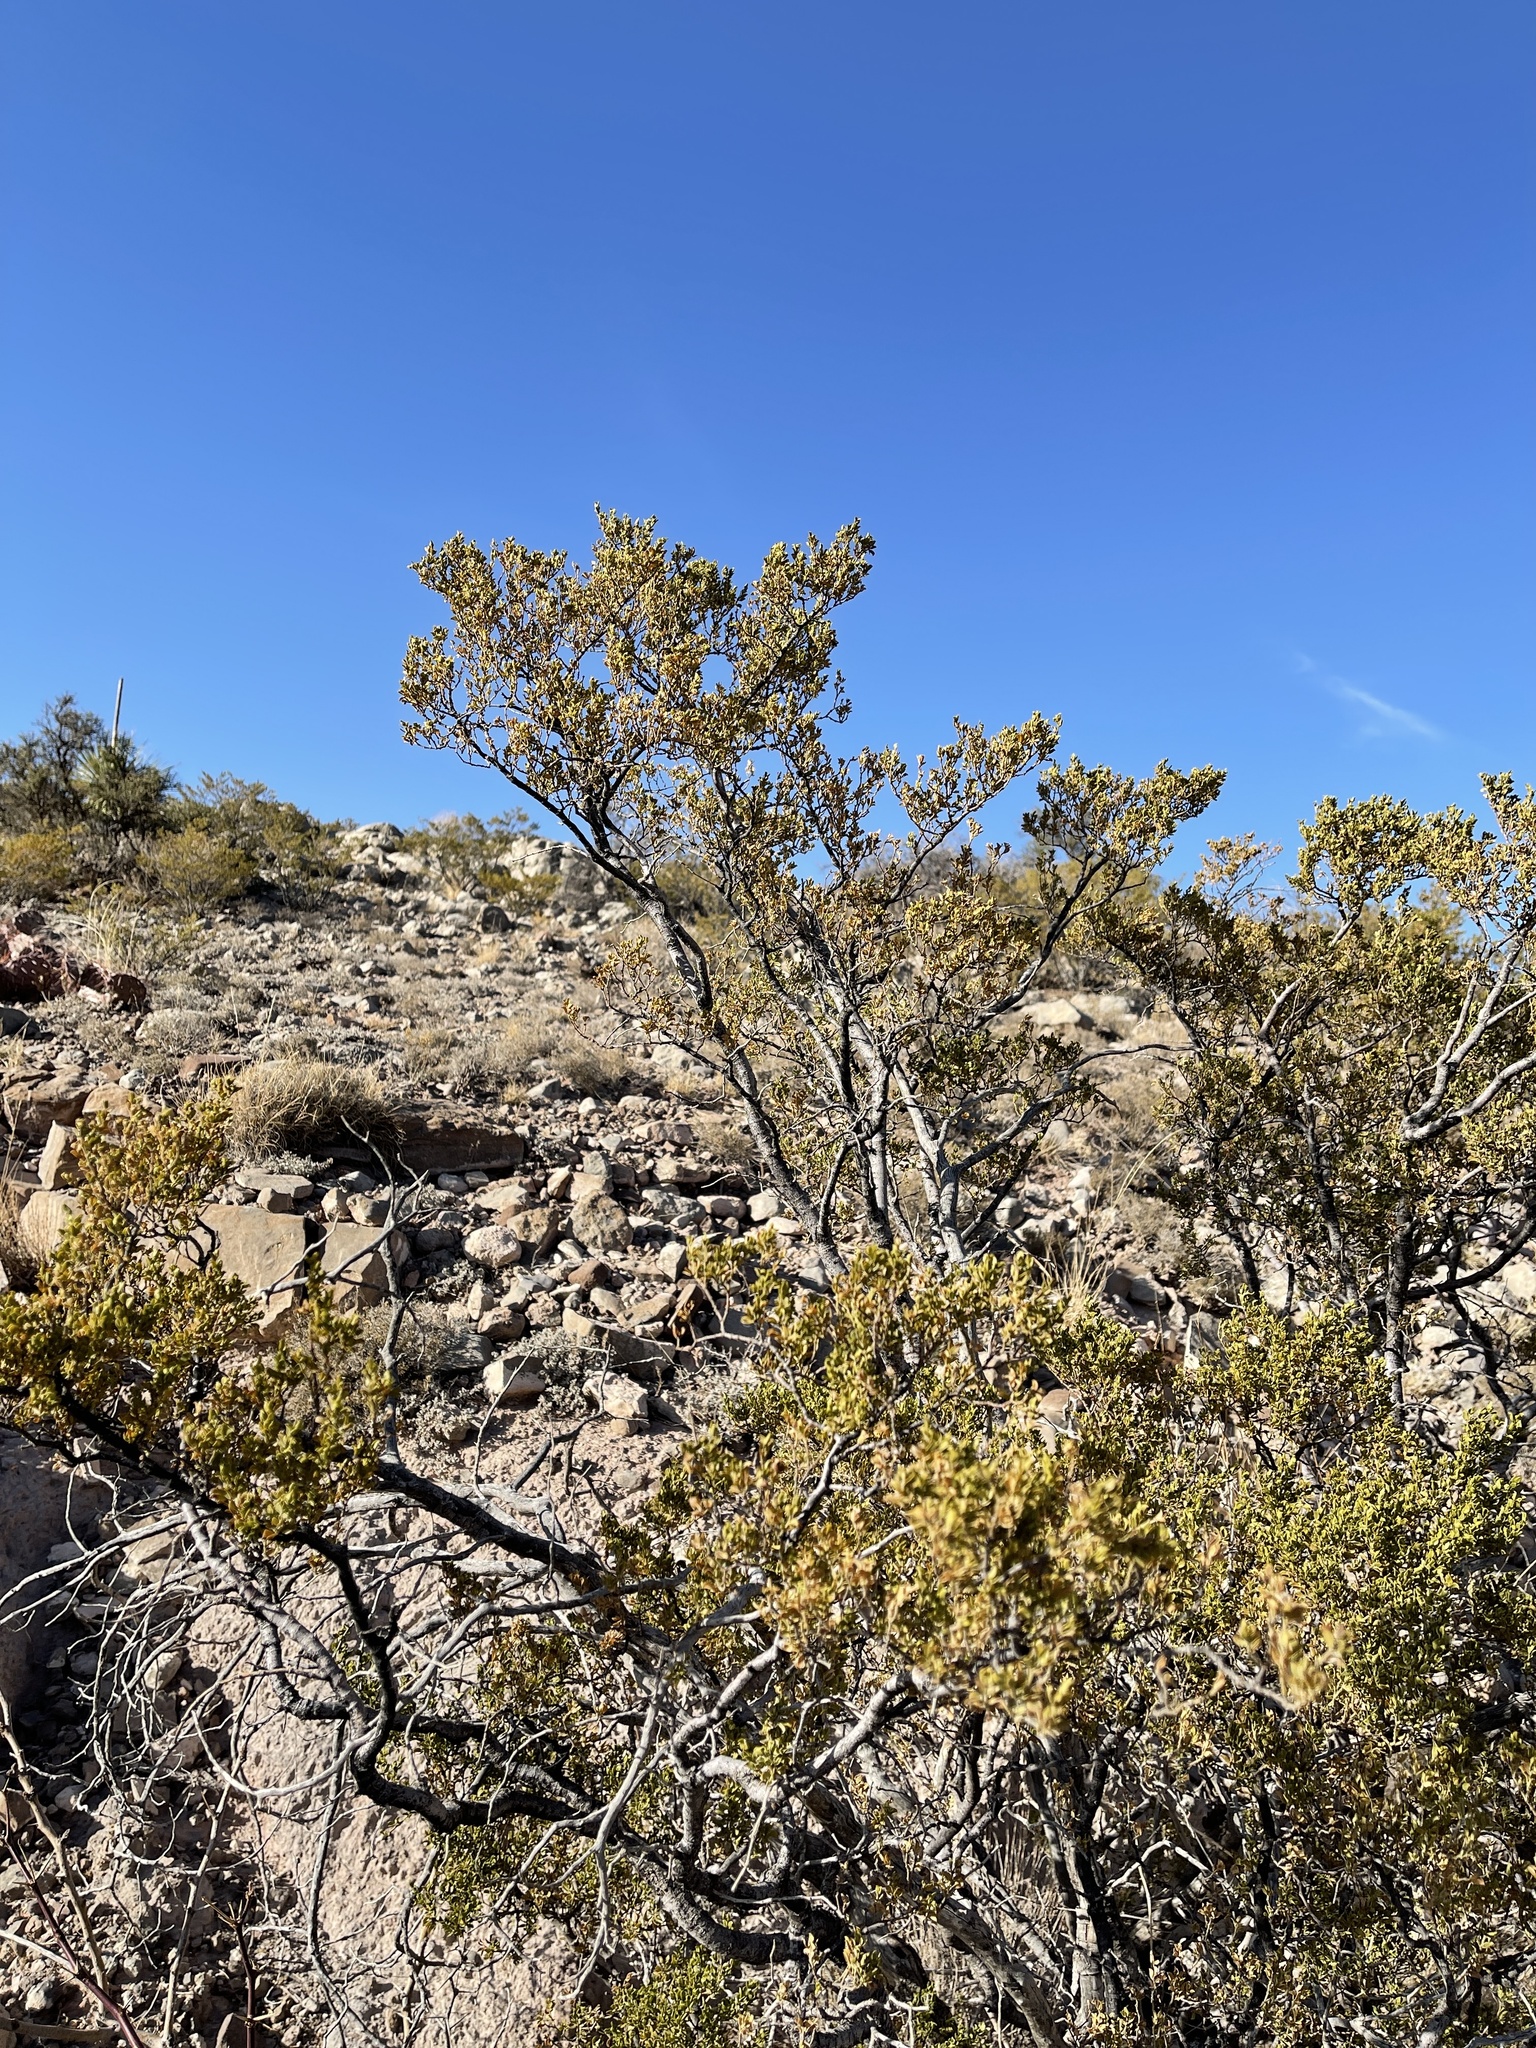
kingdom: Plantae
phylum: Tracheophyta
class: Magnoliopsida
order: Zygophyllales
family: Zygophyllaceae
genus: Larrea
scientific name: Larrea tridentata
